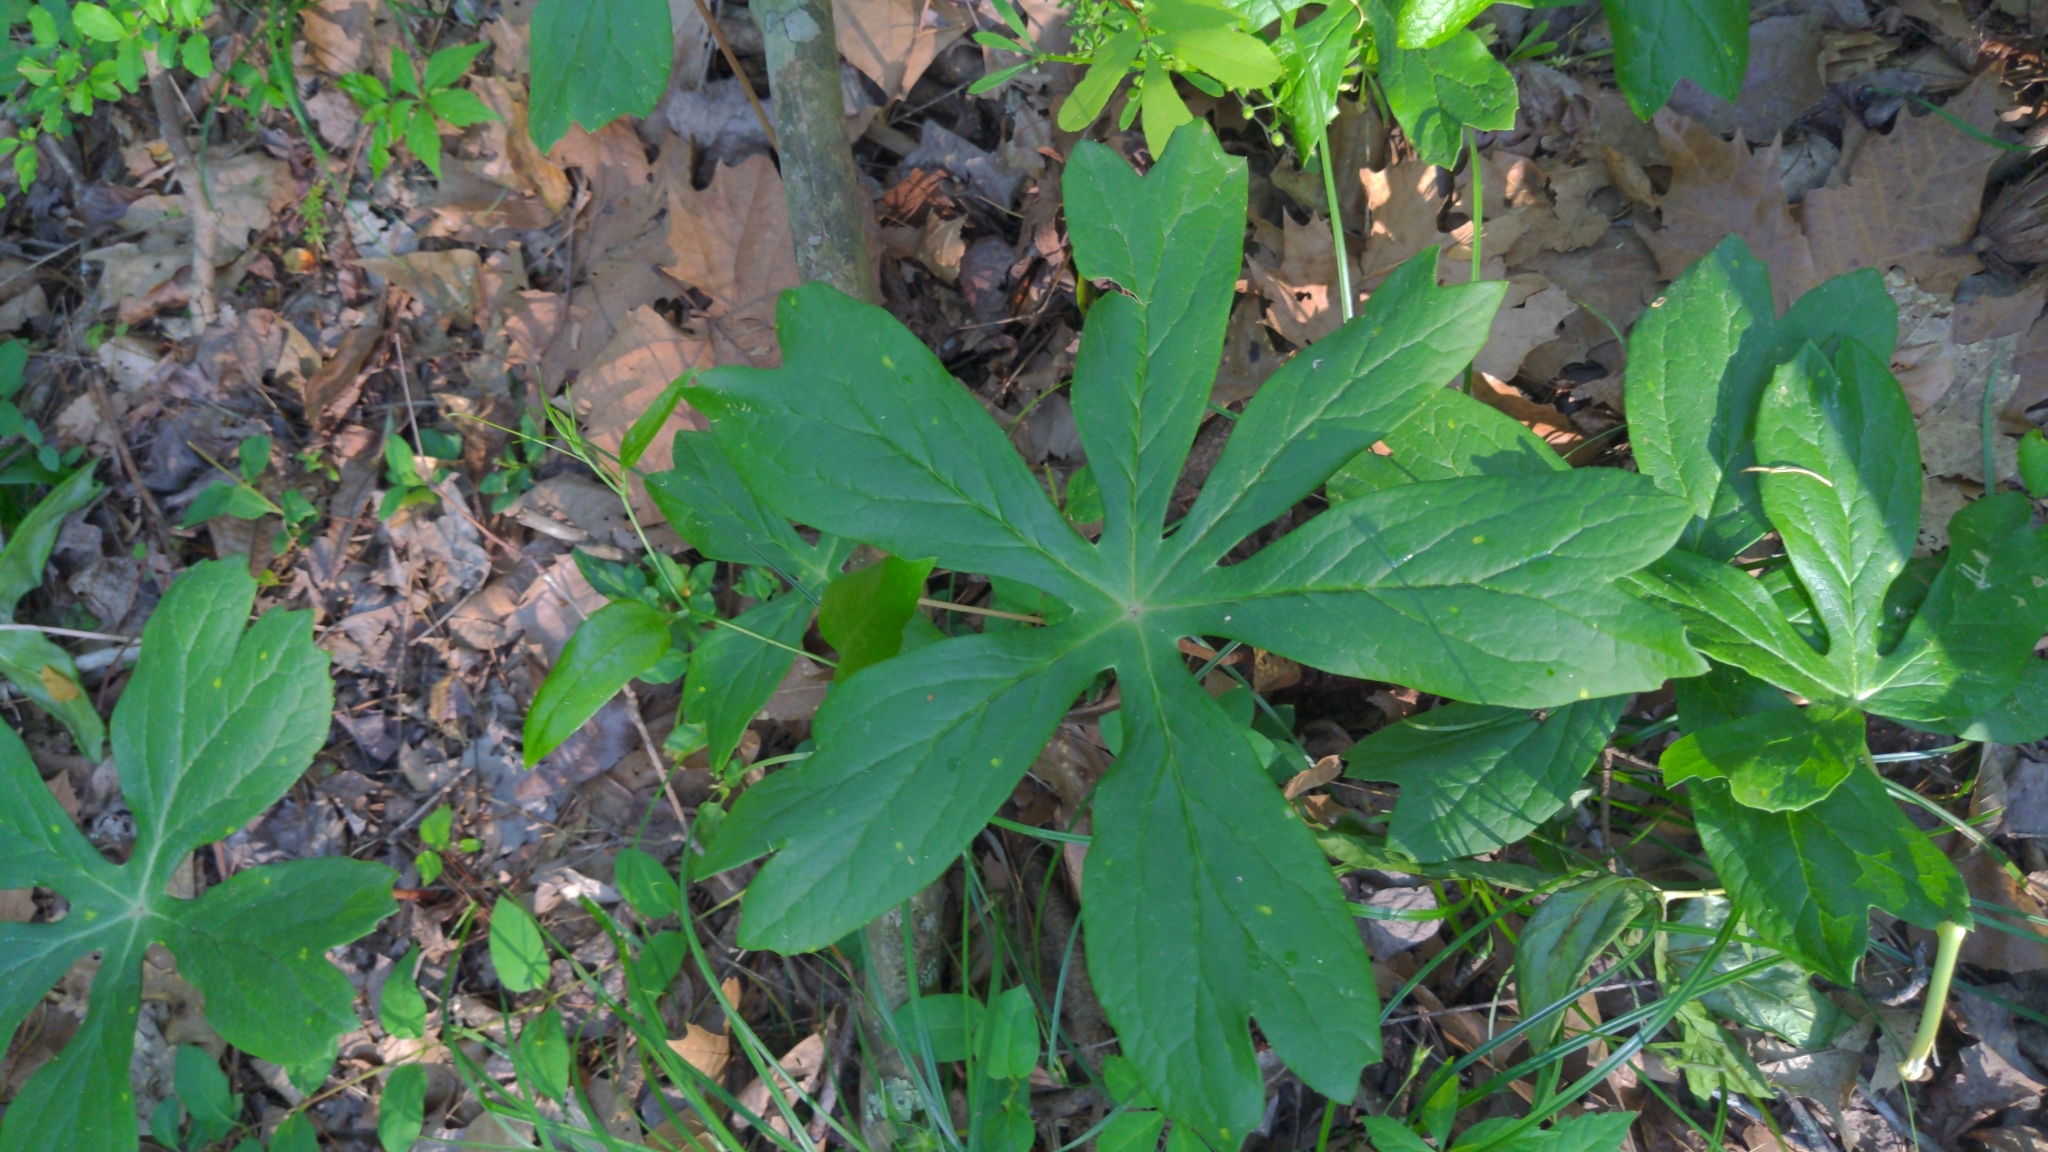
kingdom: Plantae
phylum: Tracheophyta
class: Magnoliopsida
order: Ranunculales
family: Berberidaceae
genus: Podophyllum
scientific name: Podophyllum peltatum
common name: Wild mandrake
